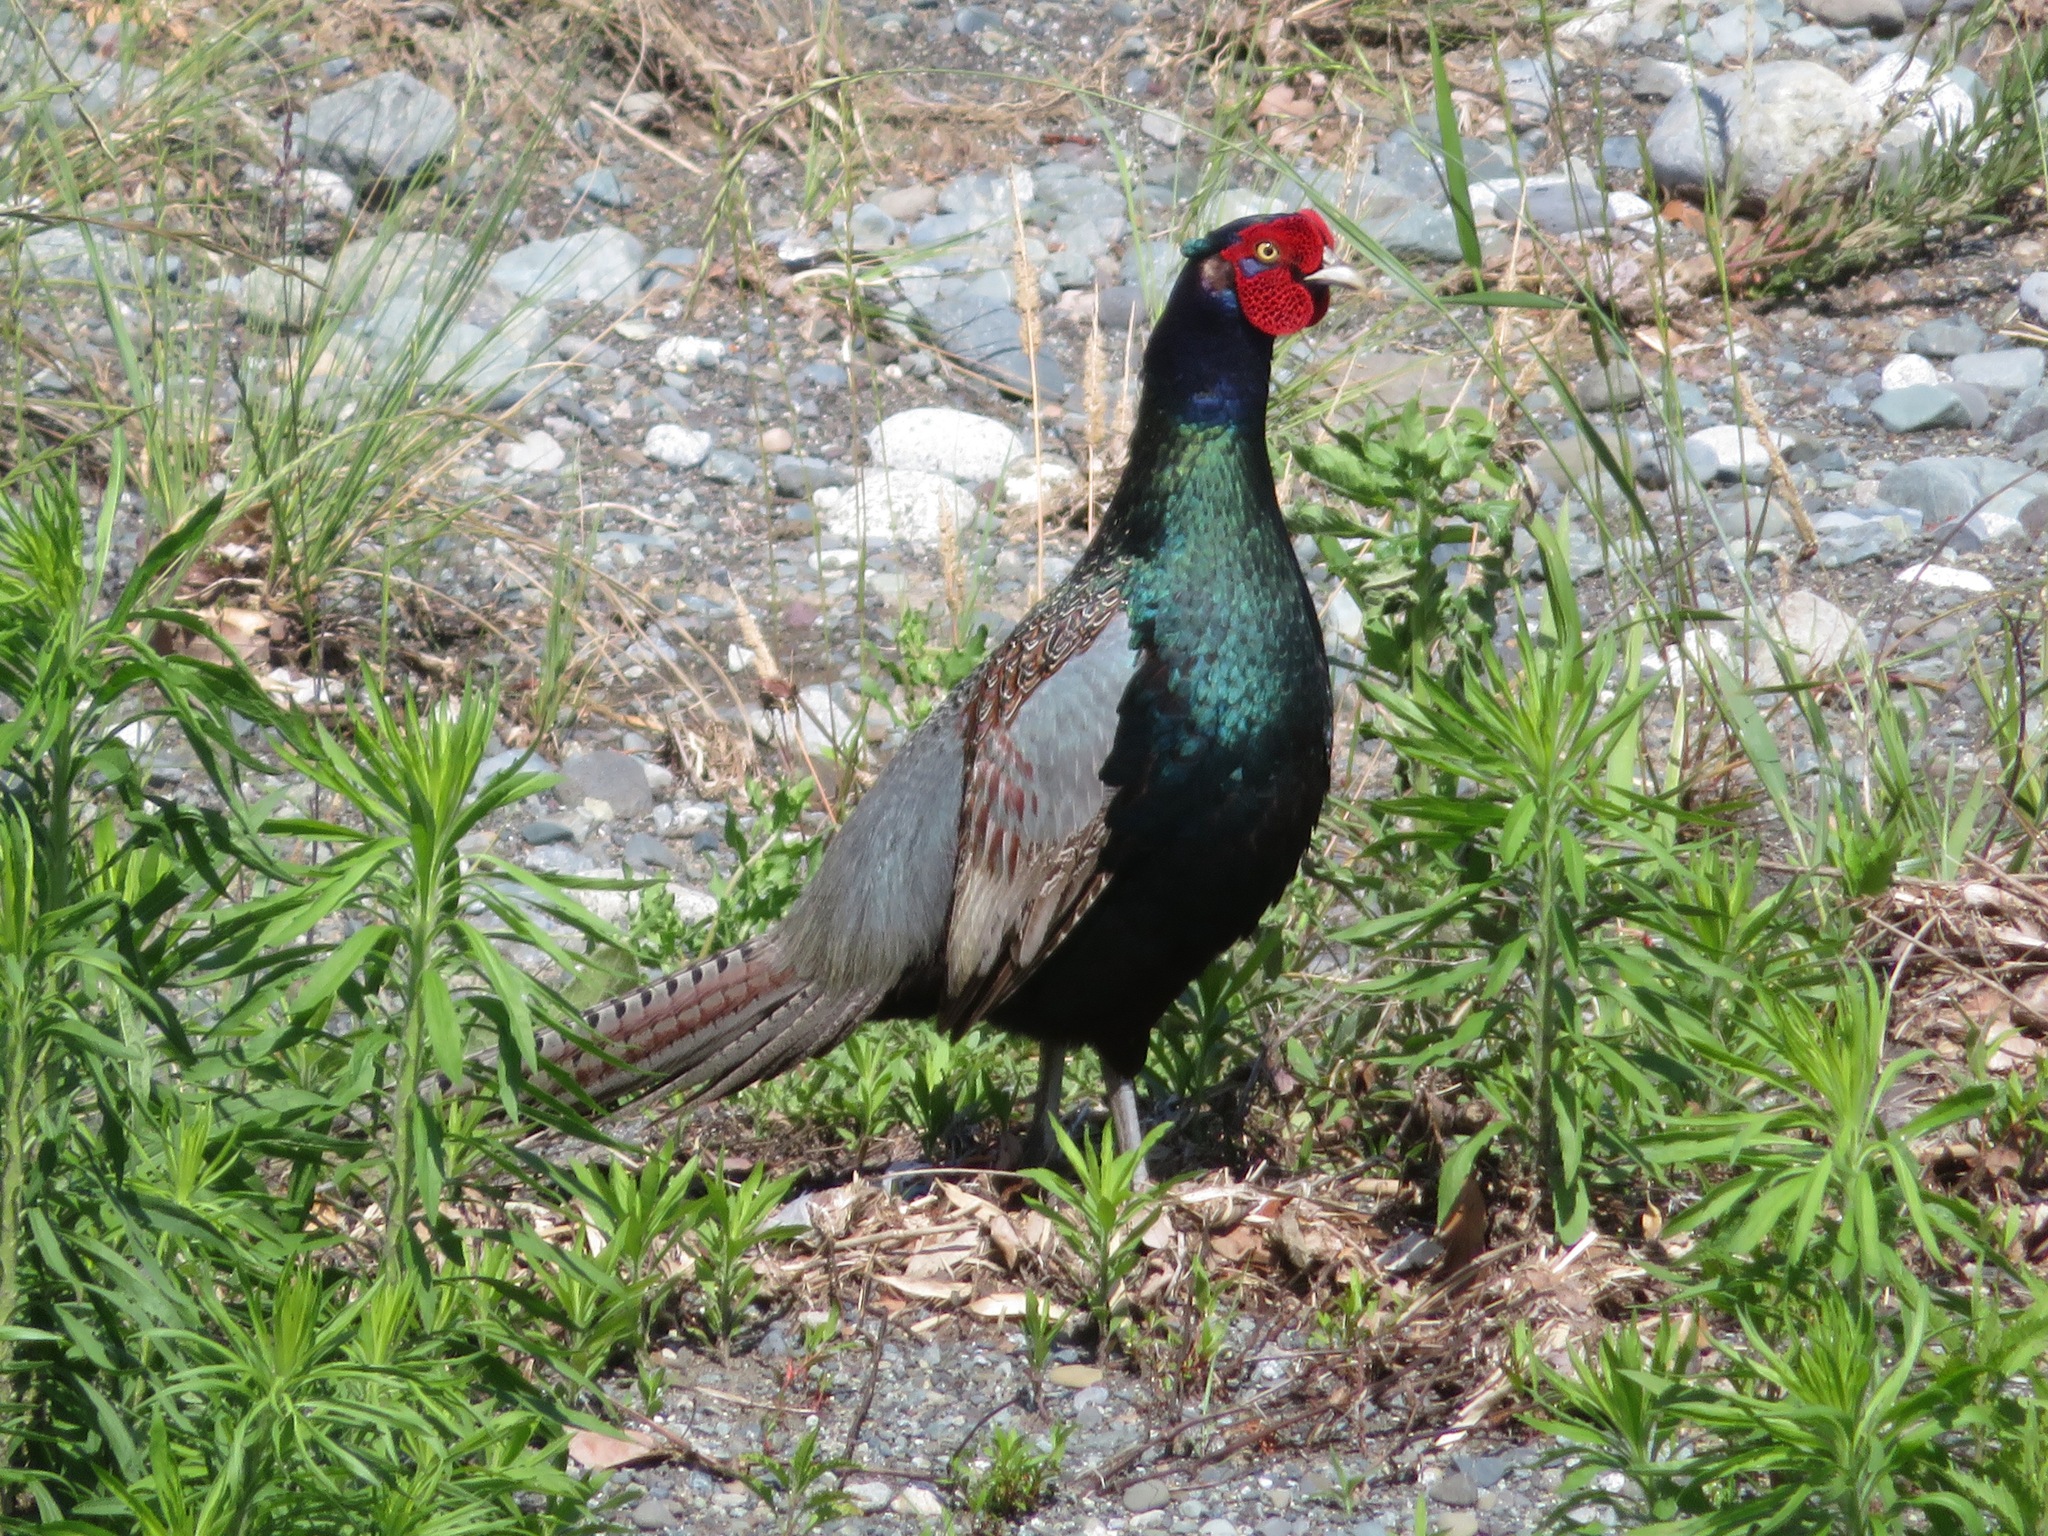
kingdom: Animalia
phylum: Chordata
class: Aves
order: Galliformes
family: Phasianidae
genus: Phasianus
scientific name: Phasianus versicolor
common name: Green pheasant
